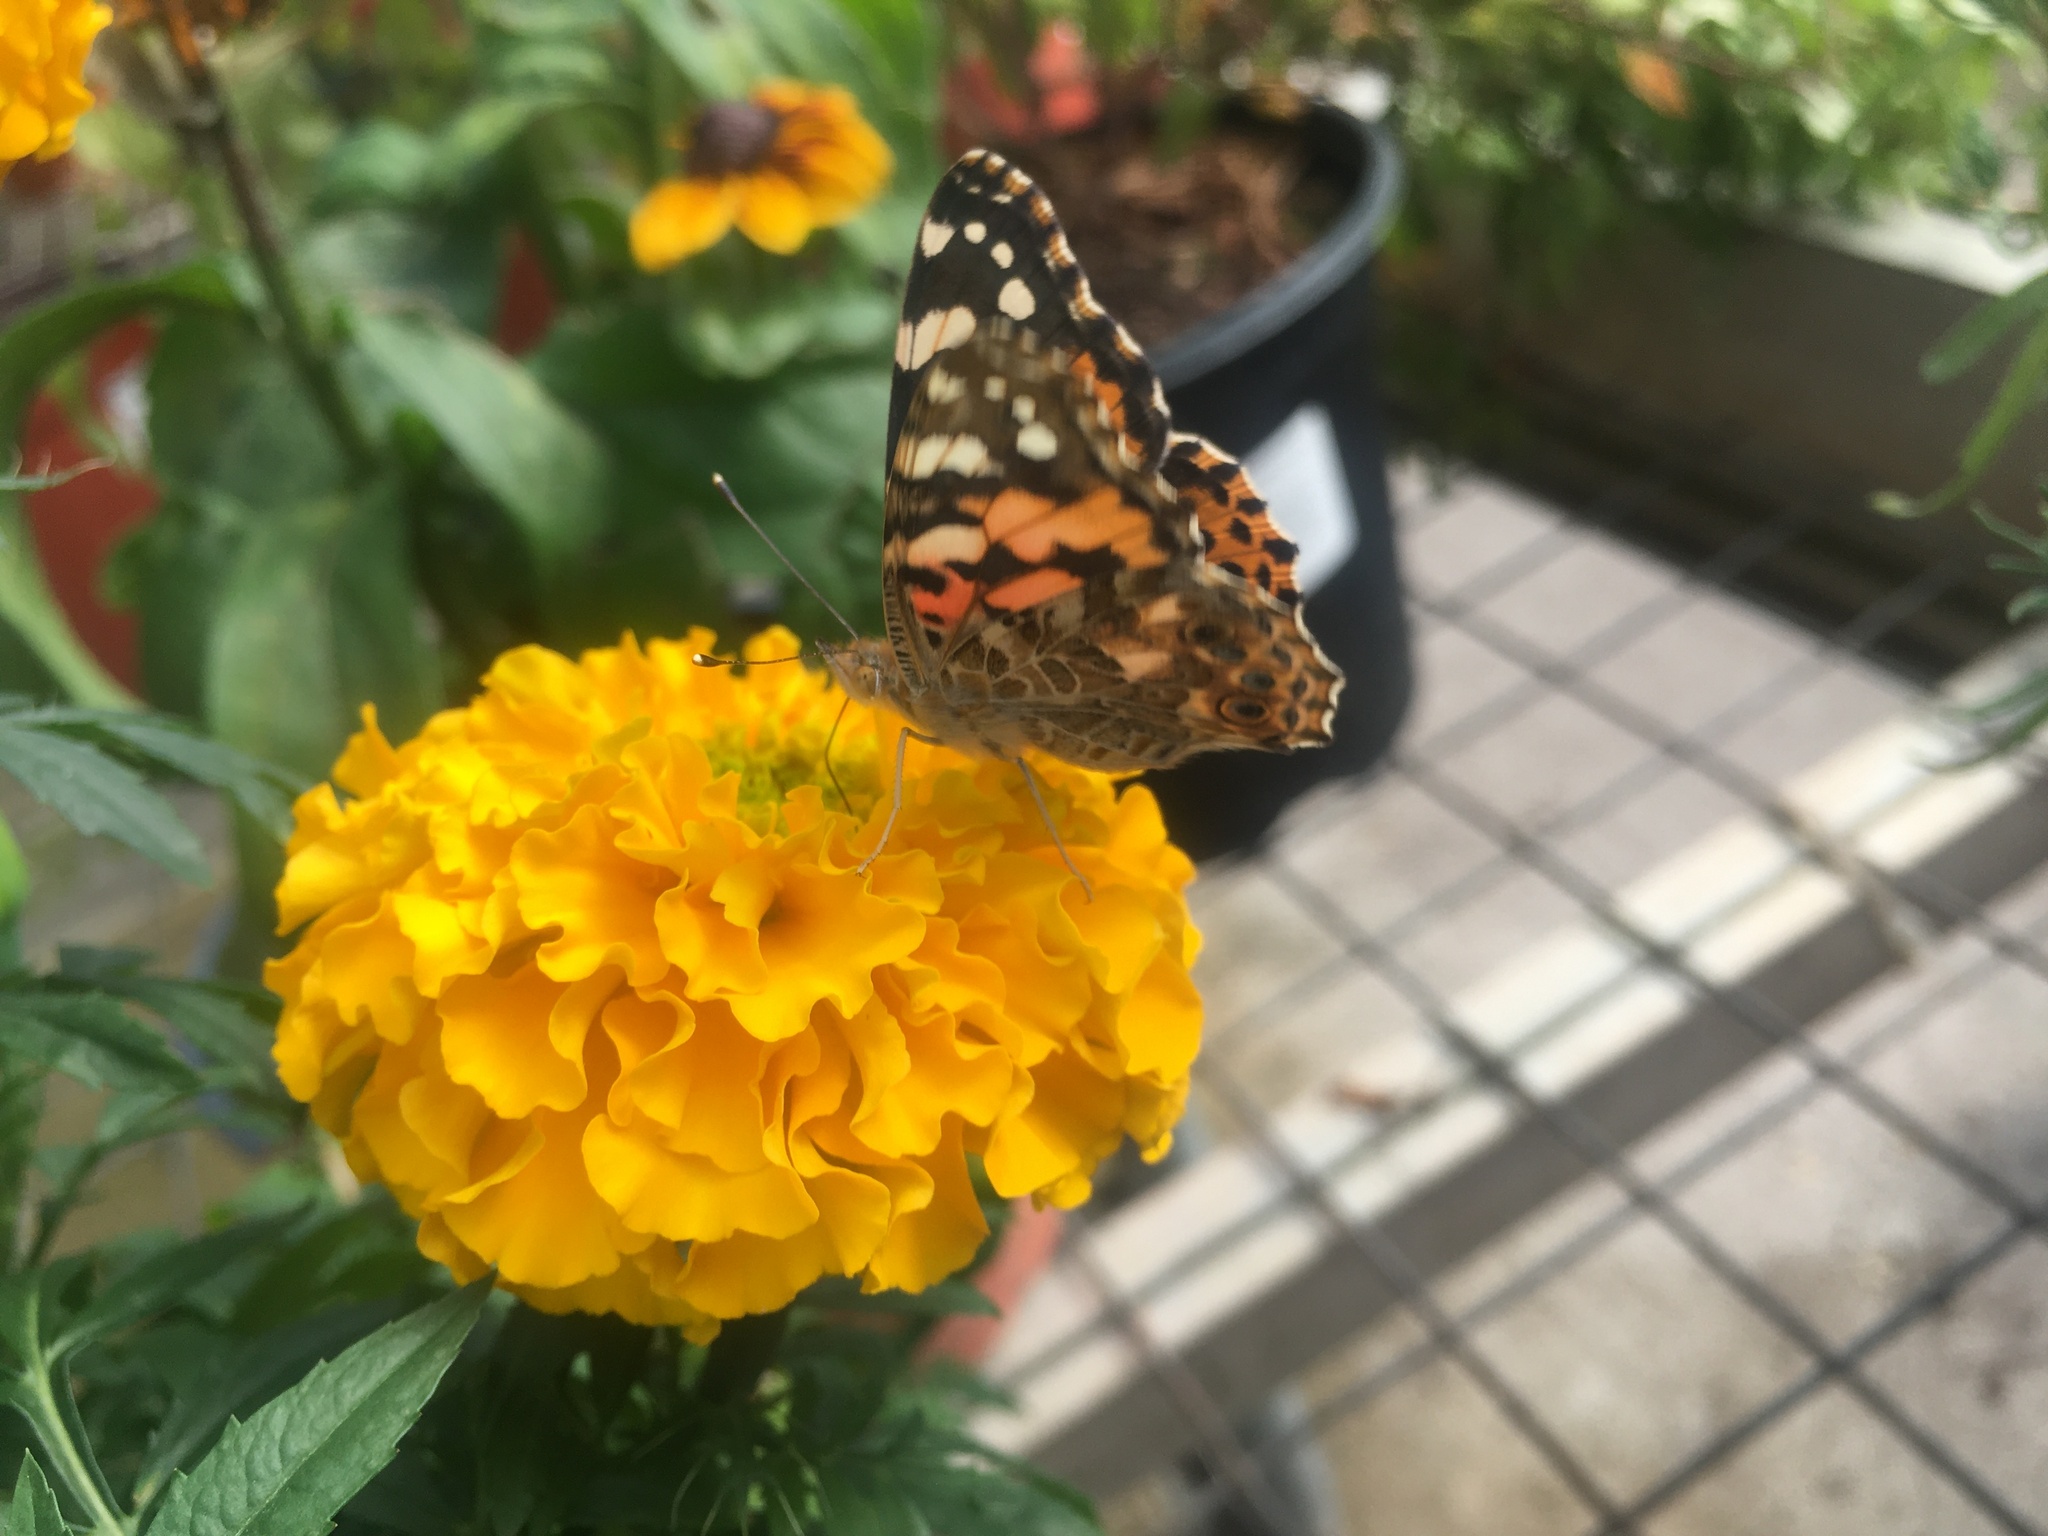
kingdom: Animalia
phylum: Arthropoda
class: Insecta
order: Lepidoptera
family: Nymphalidae
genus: Vanessa
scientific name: Vanessa cardui
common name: Painted lady
